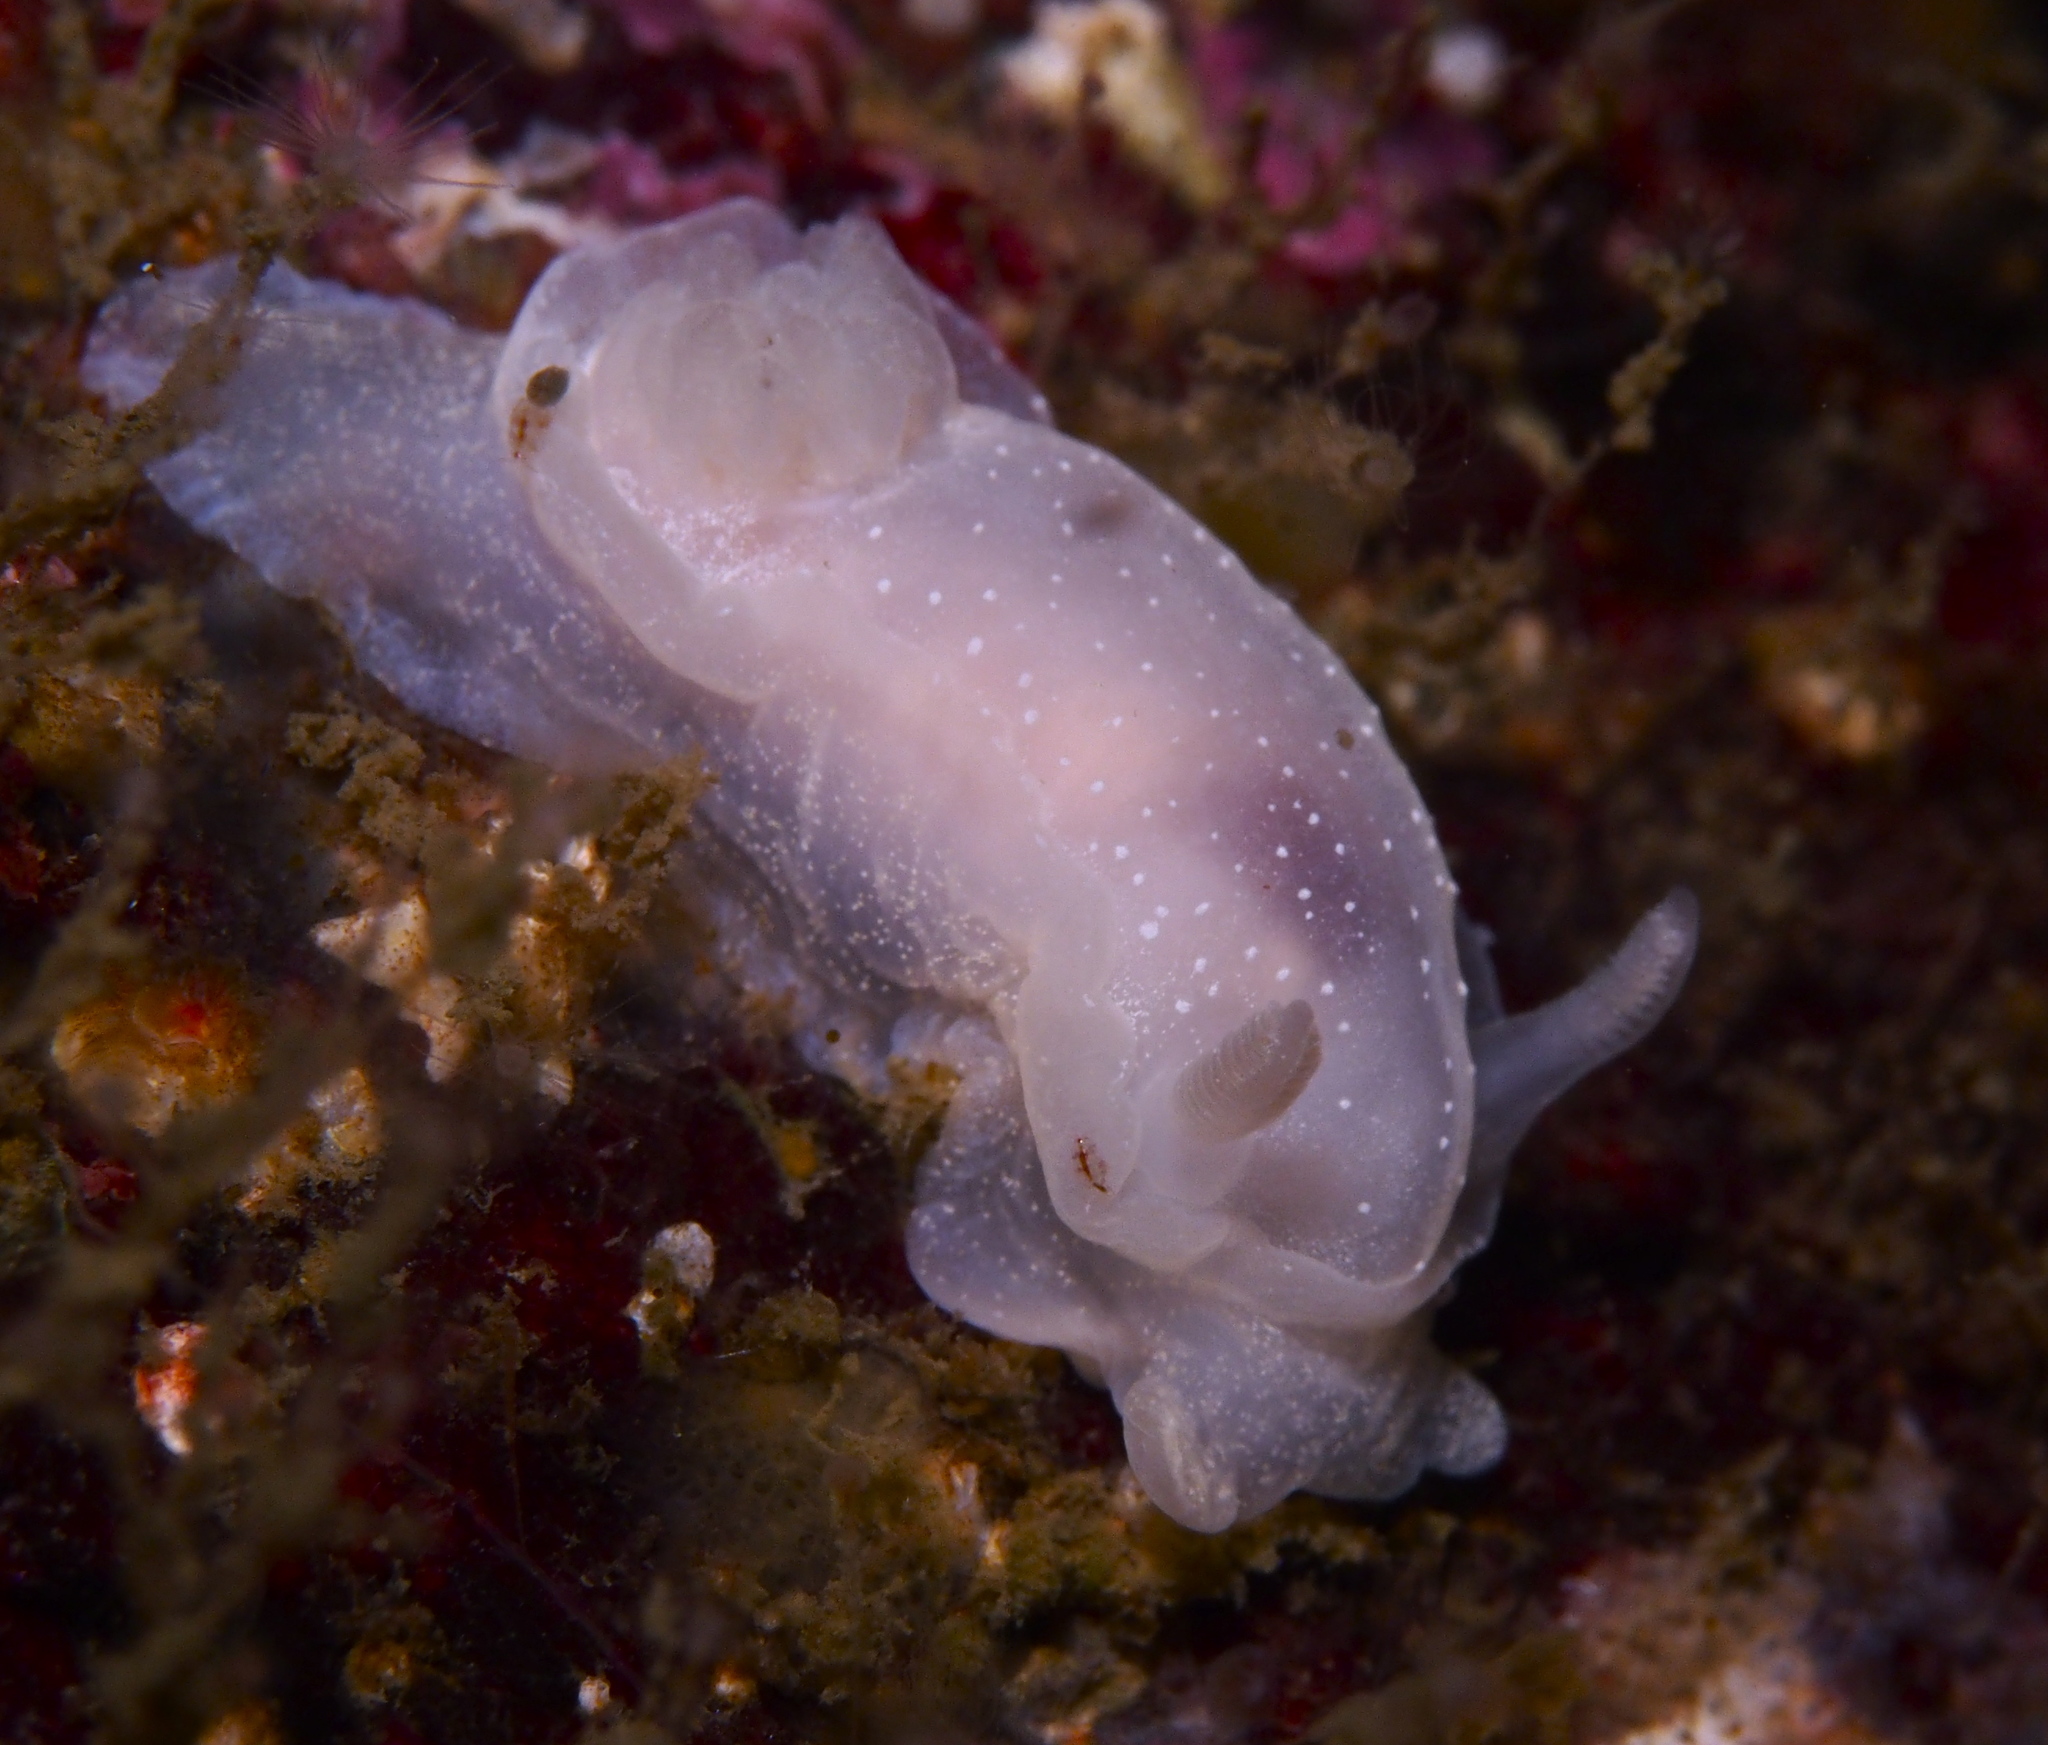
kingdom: Animalia
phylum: Mollusca
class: Gastropoda
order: Nudibranchia
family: Goniodorididae
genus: Okenia
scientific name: Okenia
